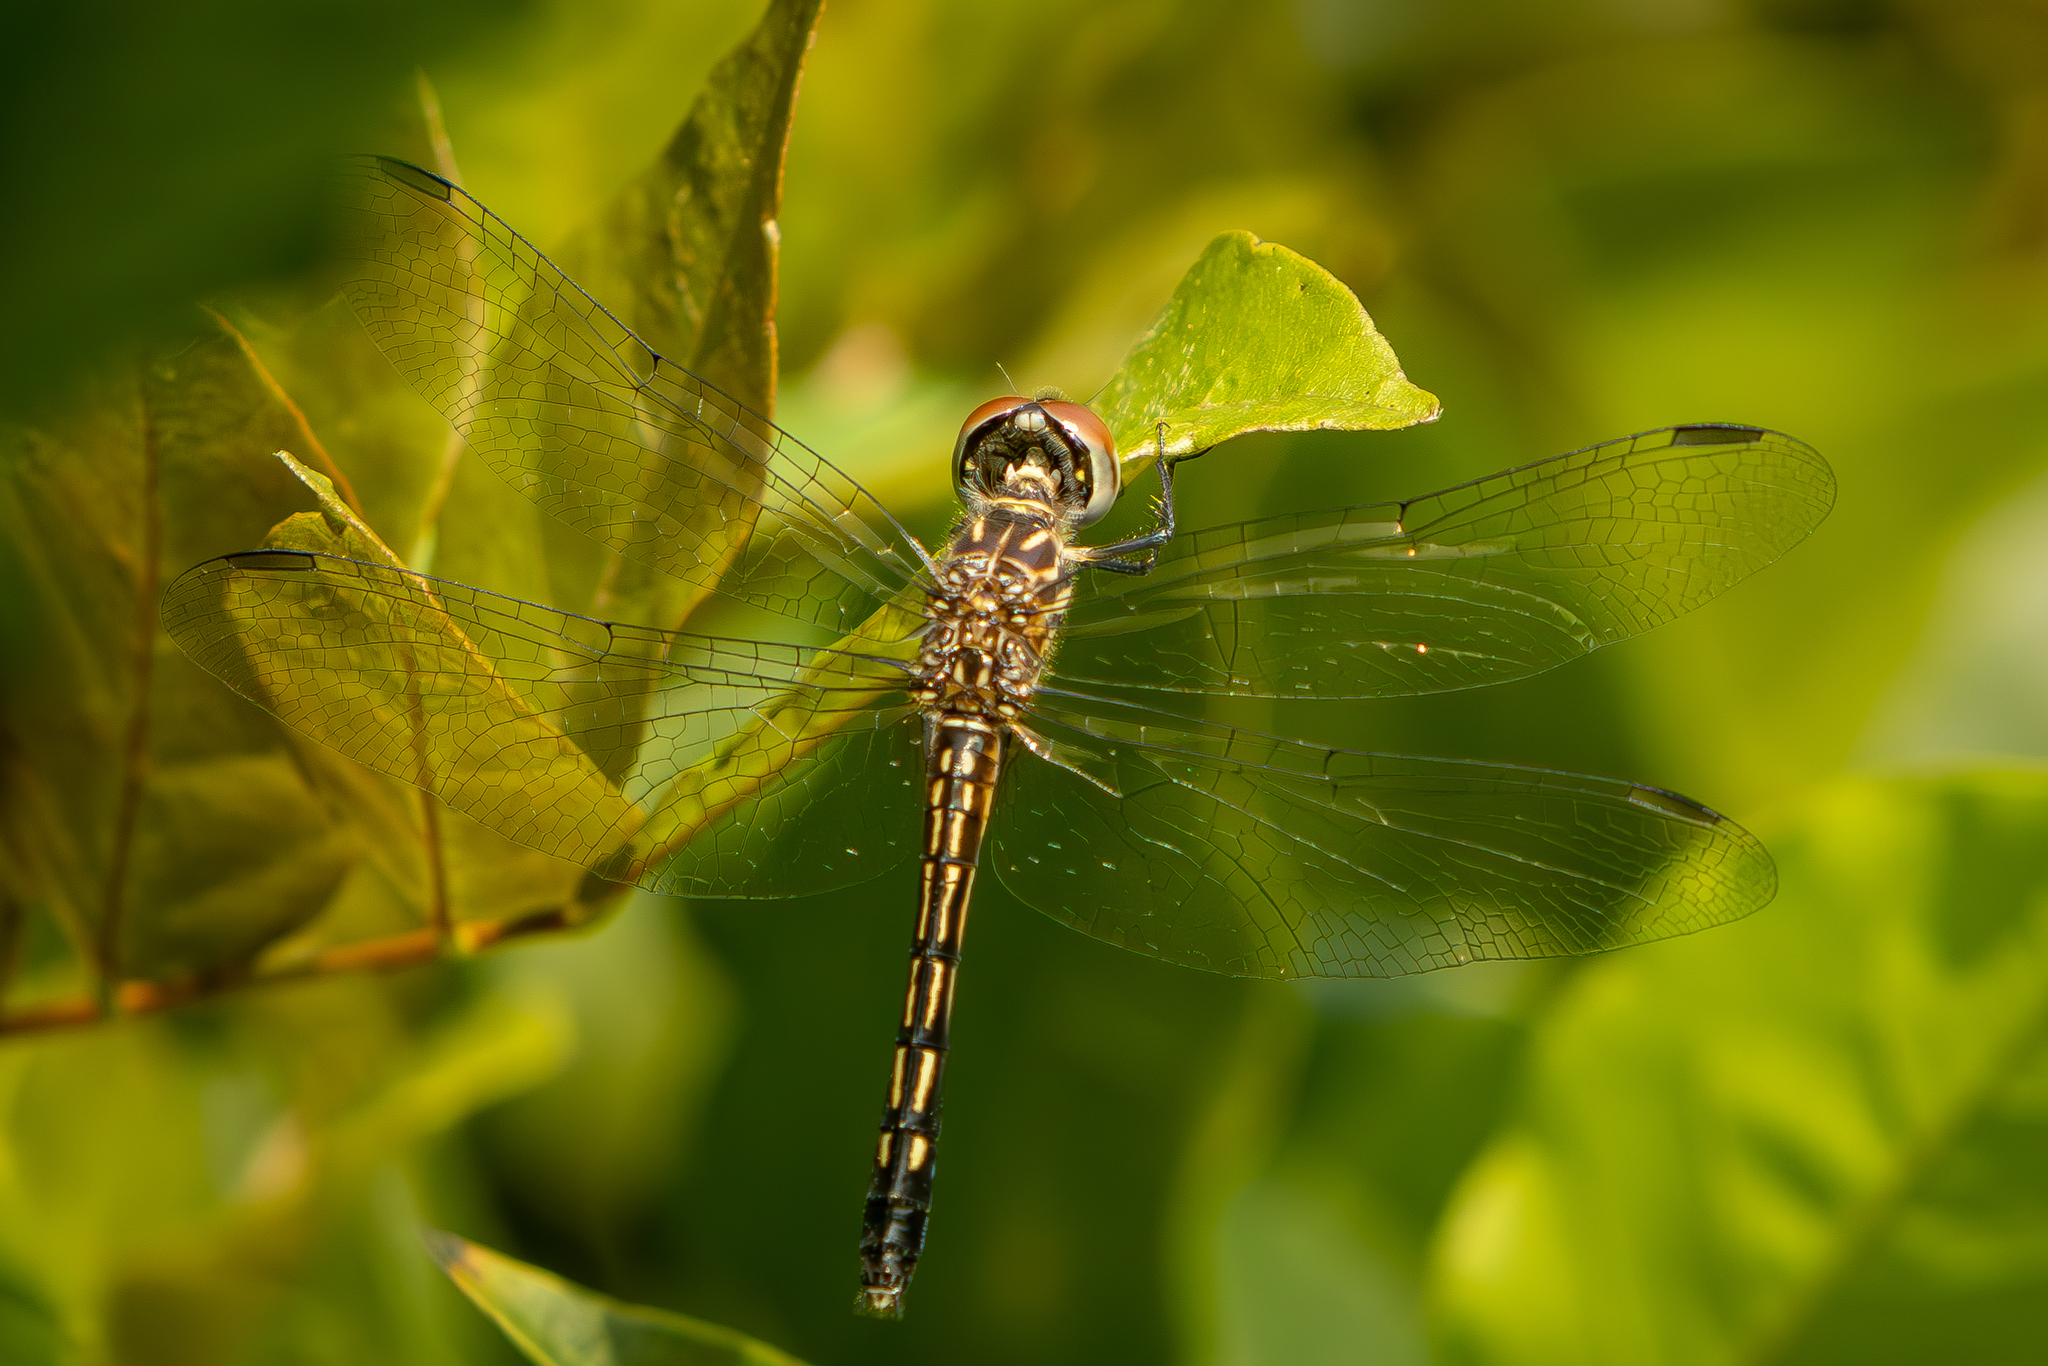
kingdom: Animalia
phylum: Arthropoda
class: Insecta
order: Odonata
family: Libellulidae
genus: Pachydiplax
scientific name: Pachydiplax longipennis
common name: Blue dasher
